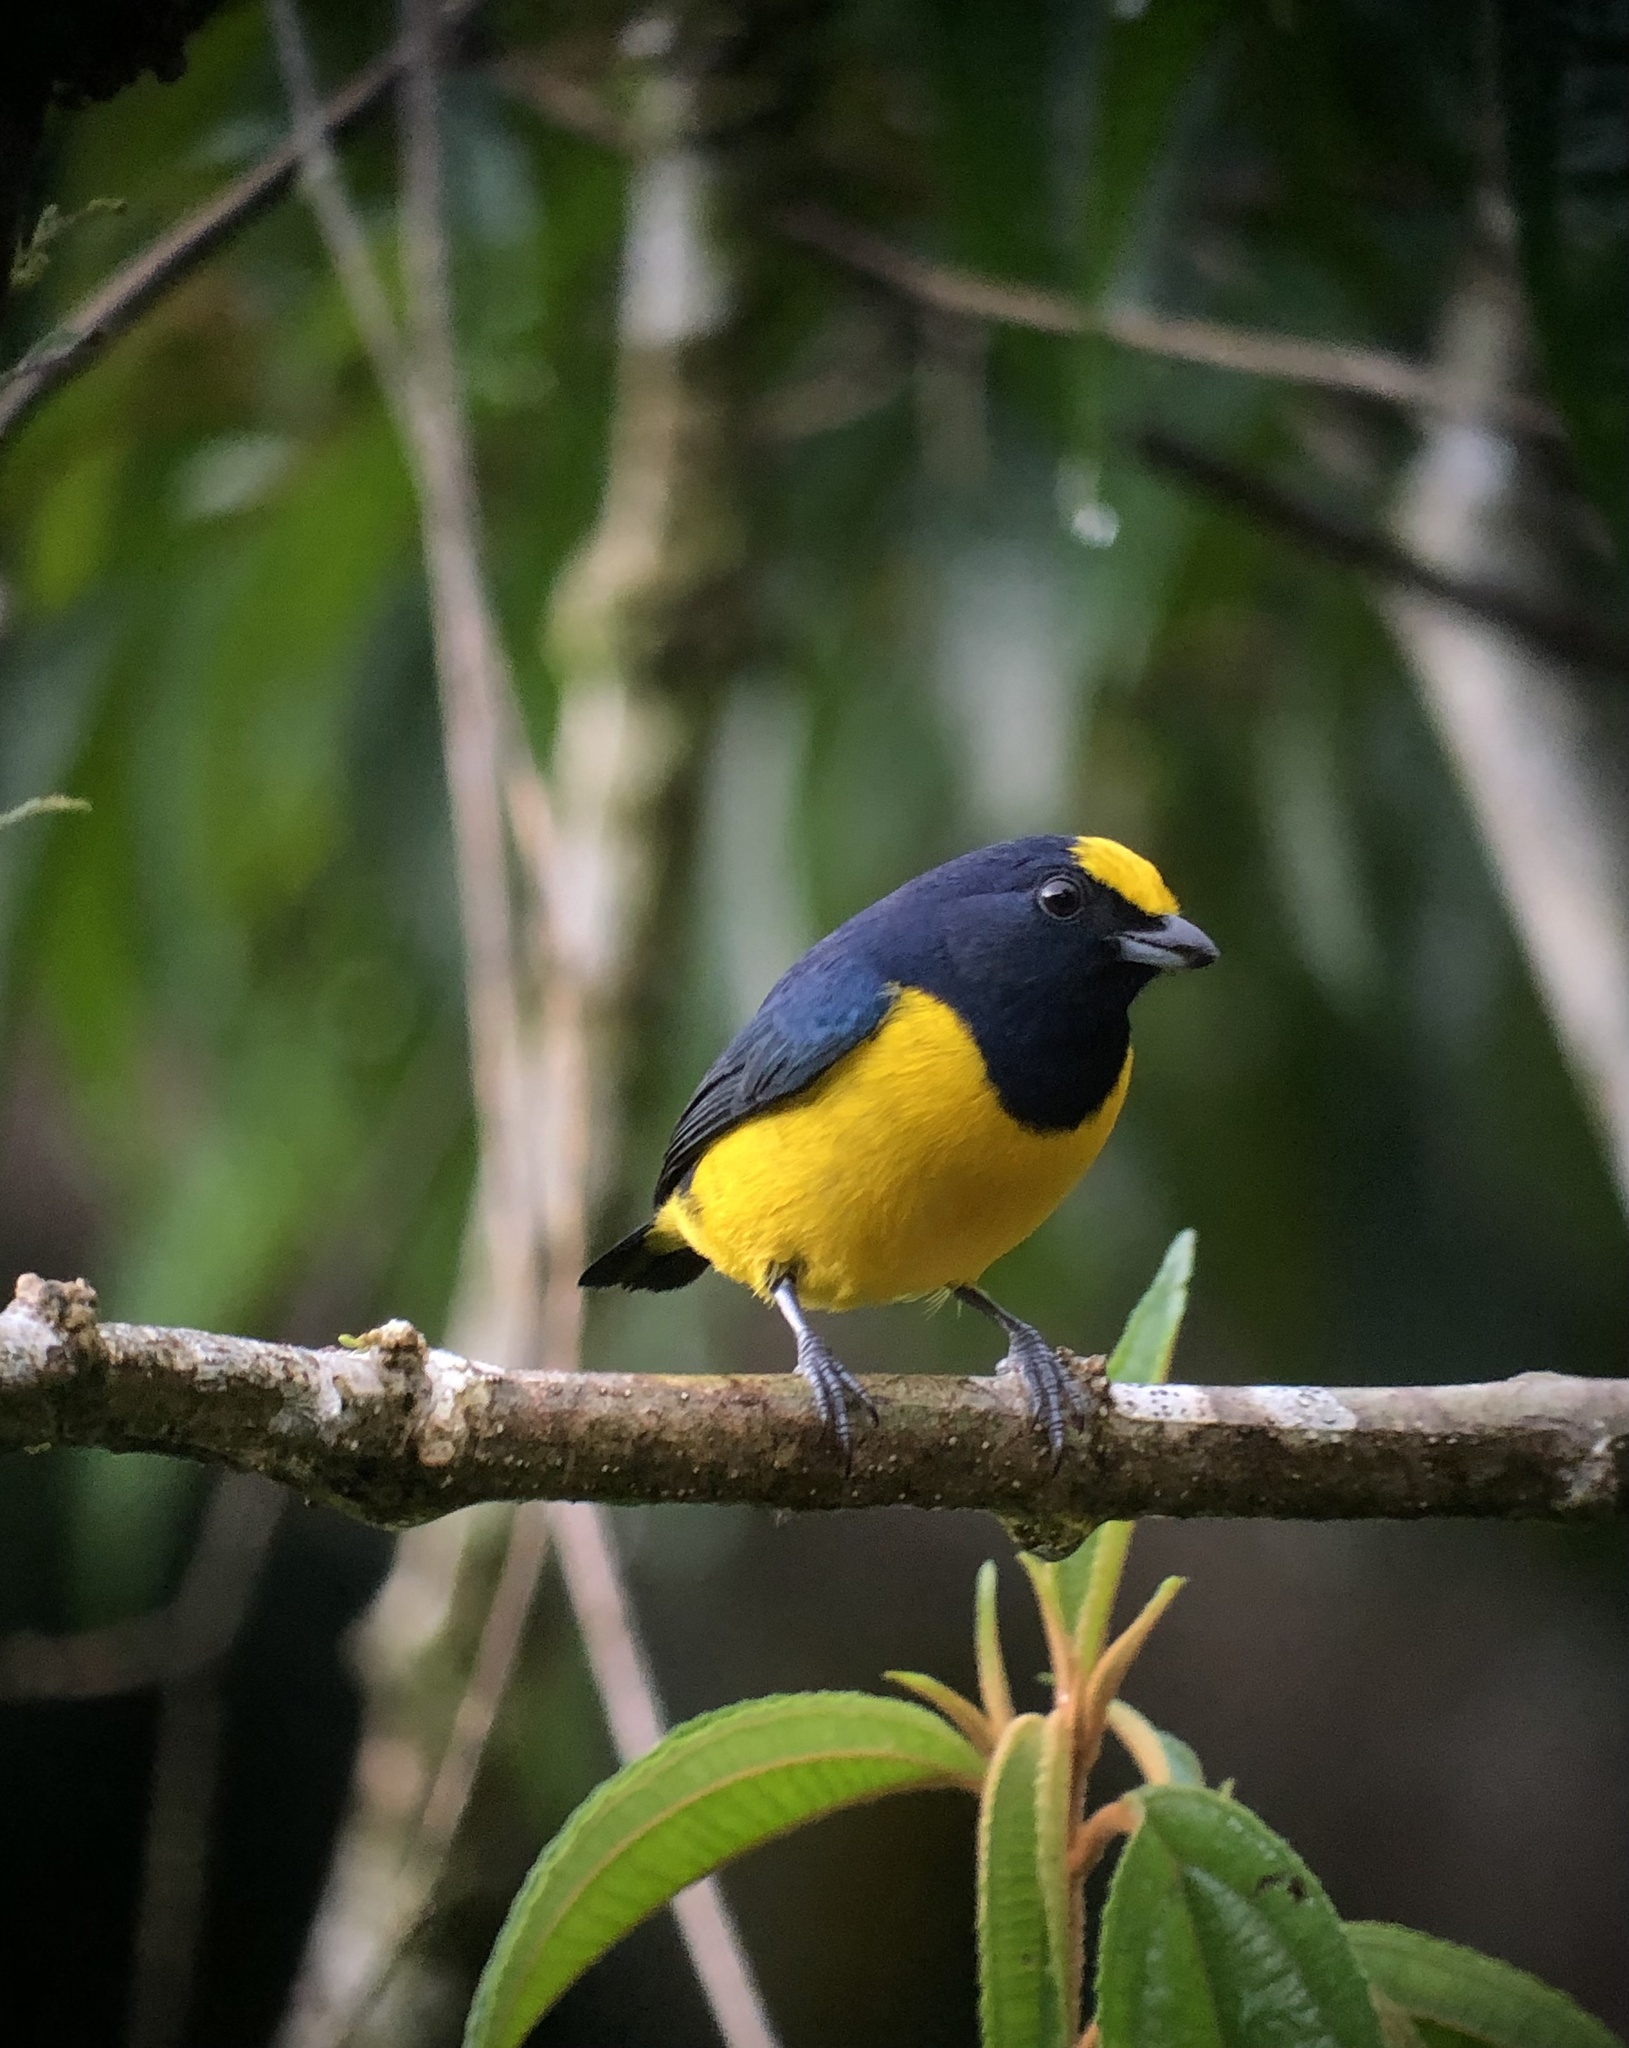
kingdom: Animalia
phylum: Chordata
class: Aves
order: Passeriformes
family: Fringillidae
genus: Euphonia
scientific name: Euphonia imitans
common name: Spot-crowned euphonia
